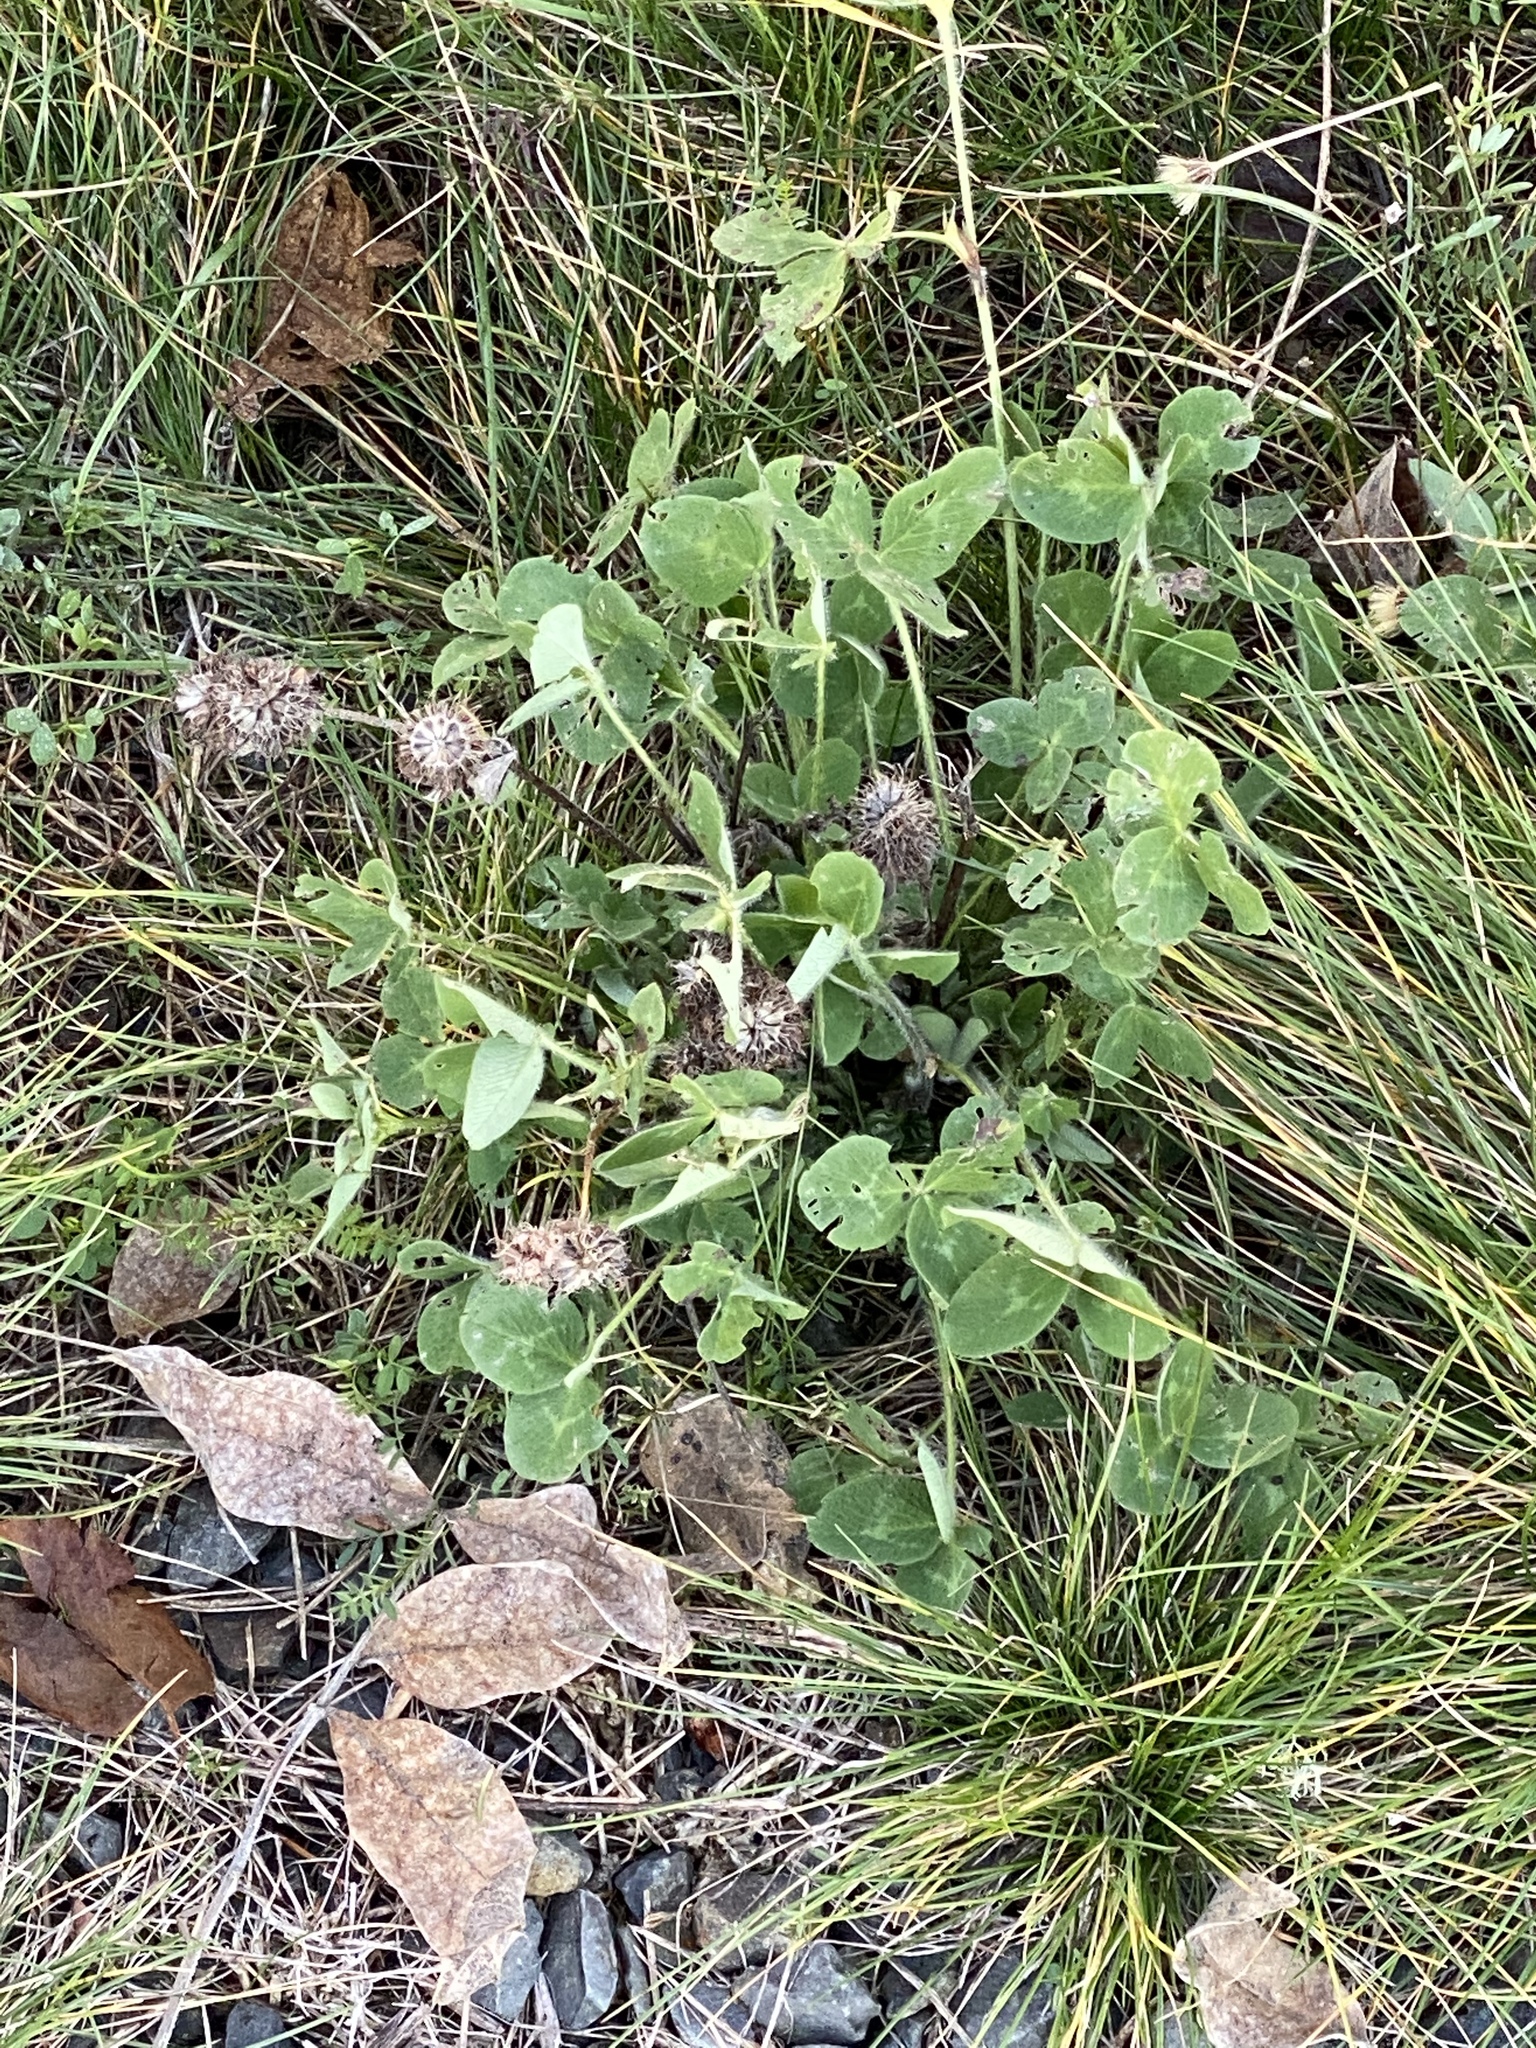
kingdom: Plantae
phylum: Tracheophyta
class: Magnoliopsida
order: Fabales
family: Fabaceae
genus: Trifolium
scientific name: Trifolium pratense
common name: Red clover
